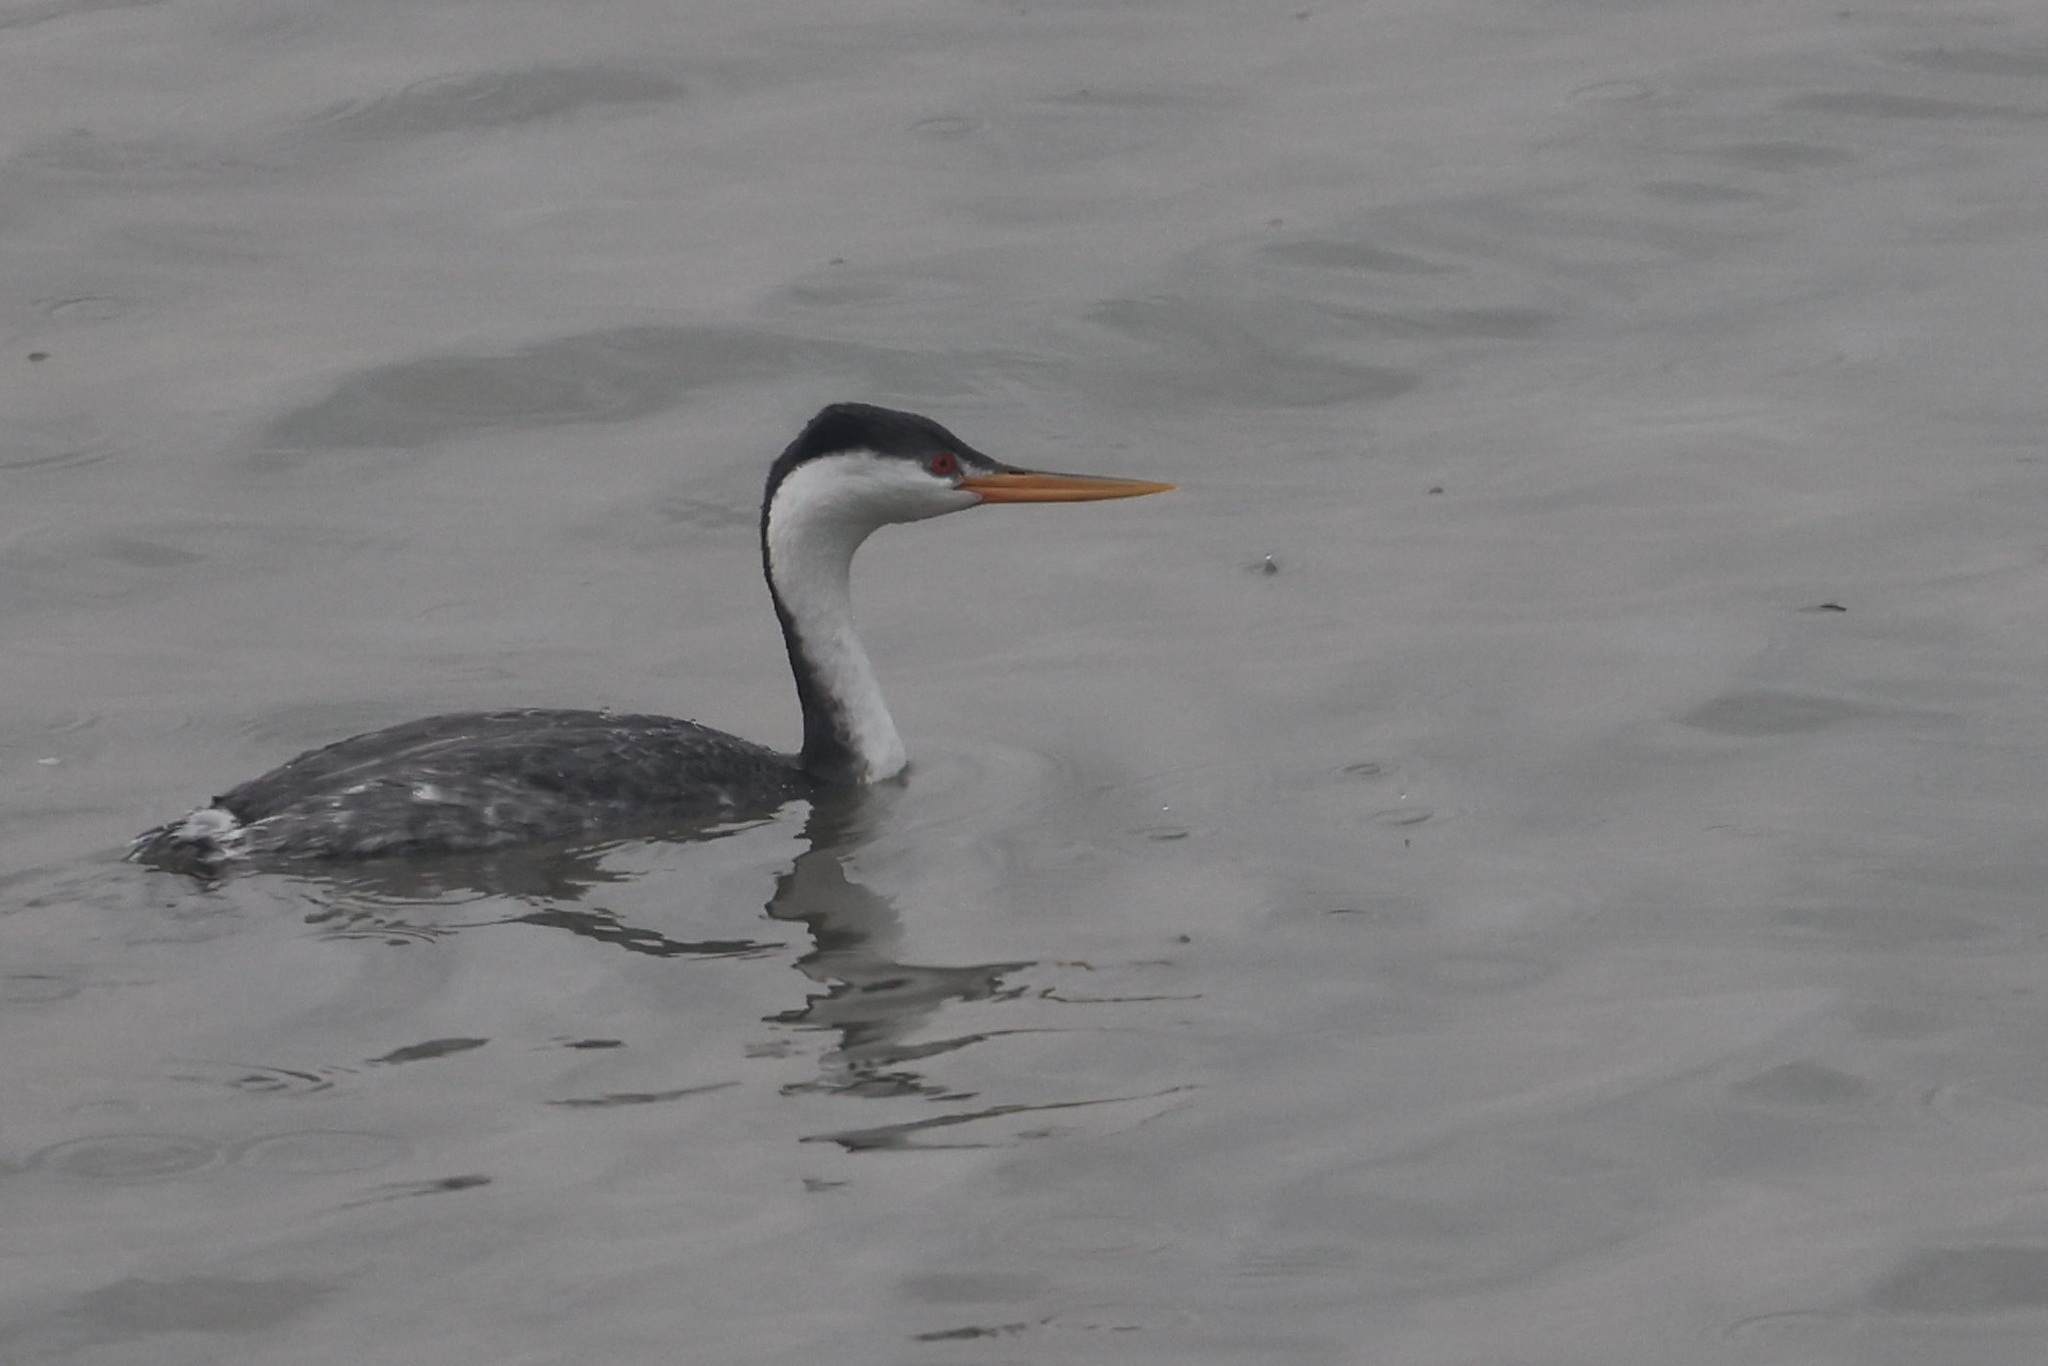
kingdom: Animalia
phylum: Chordata
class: Aves
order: Podicipediformes
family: Podicipedidae
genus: Aechmophorus
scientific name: Aechmophorus clarkii
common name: Clark's grebe
